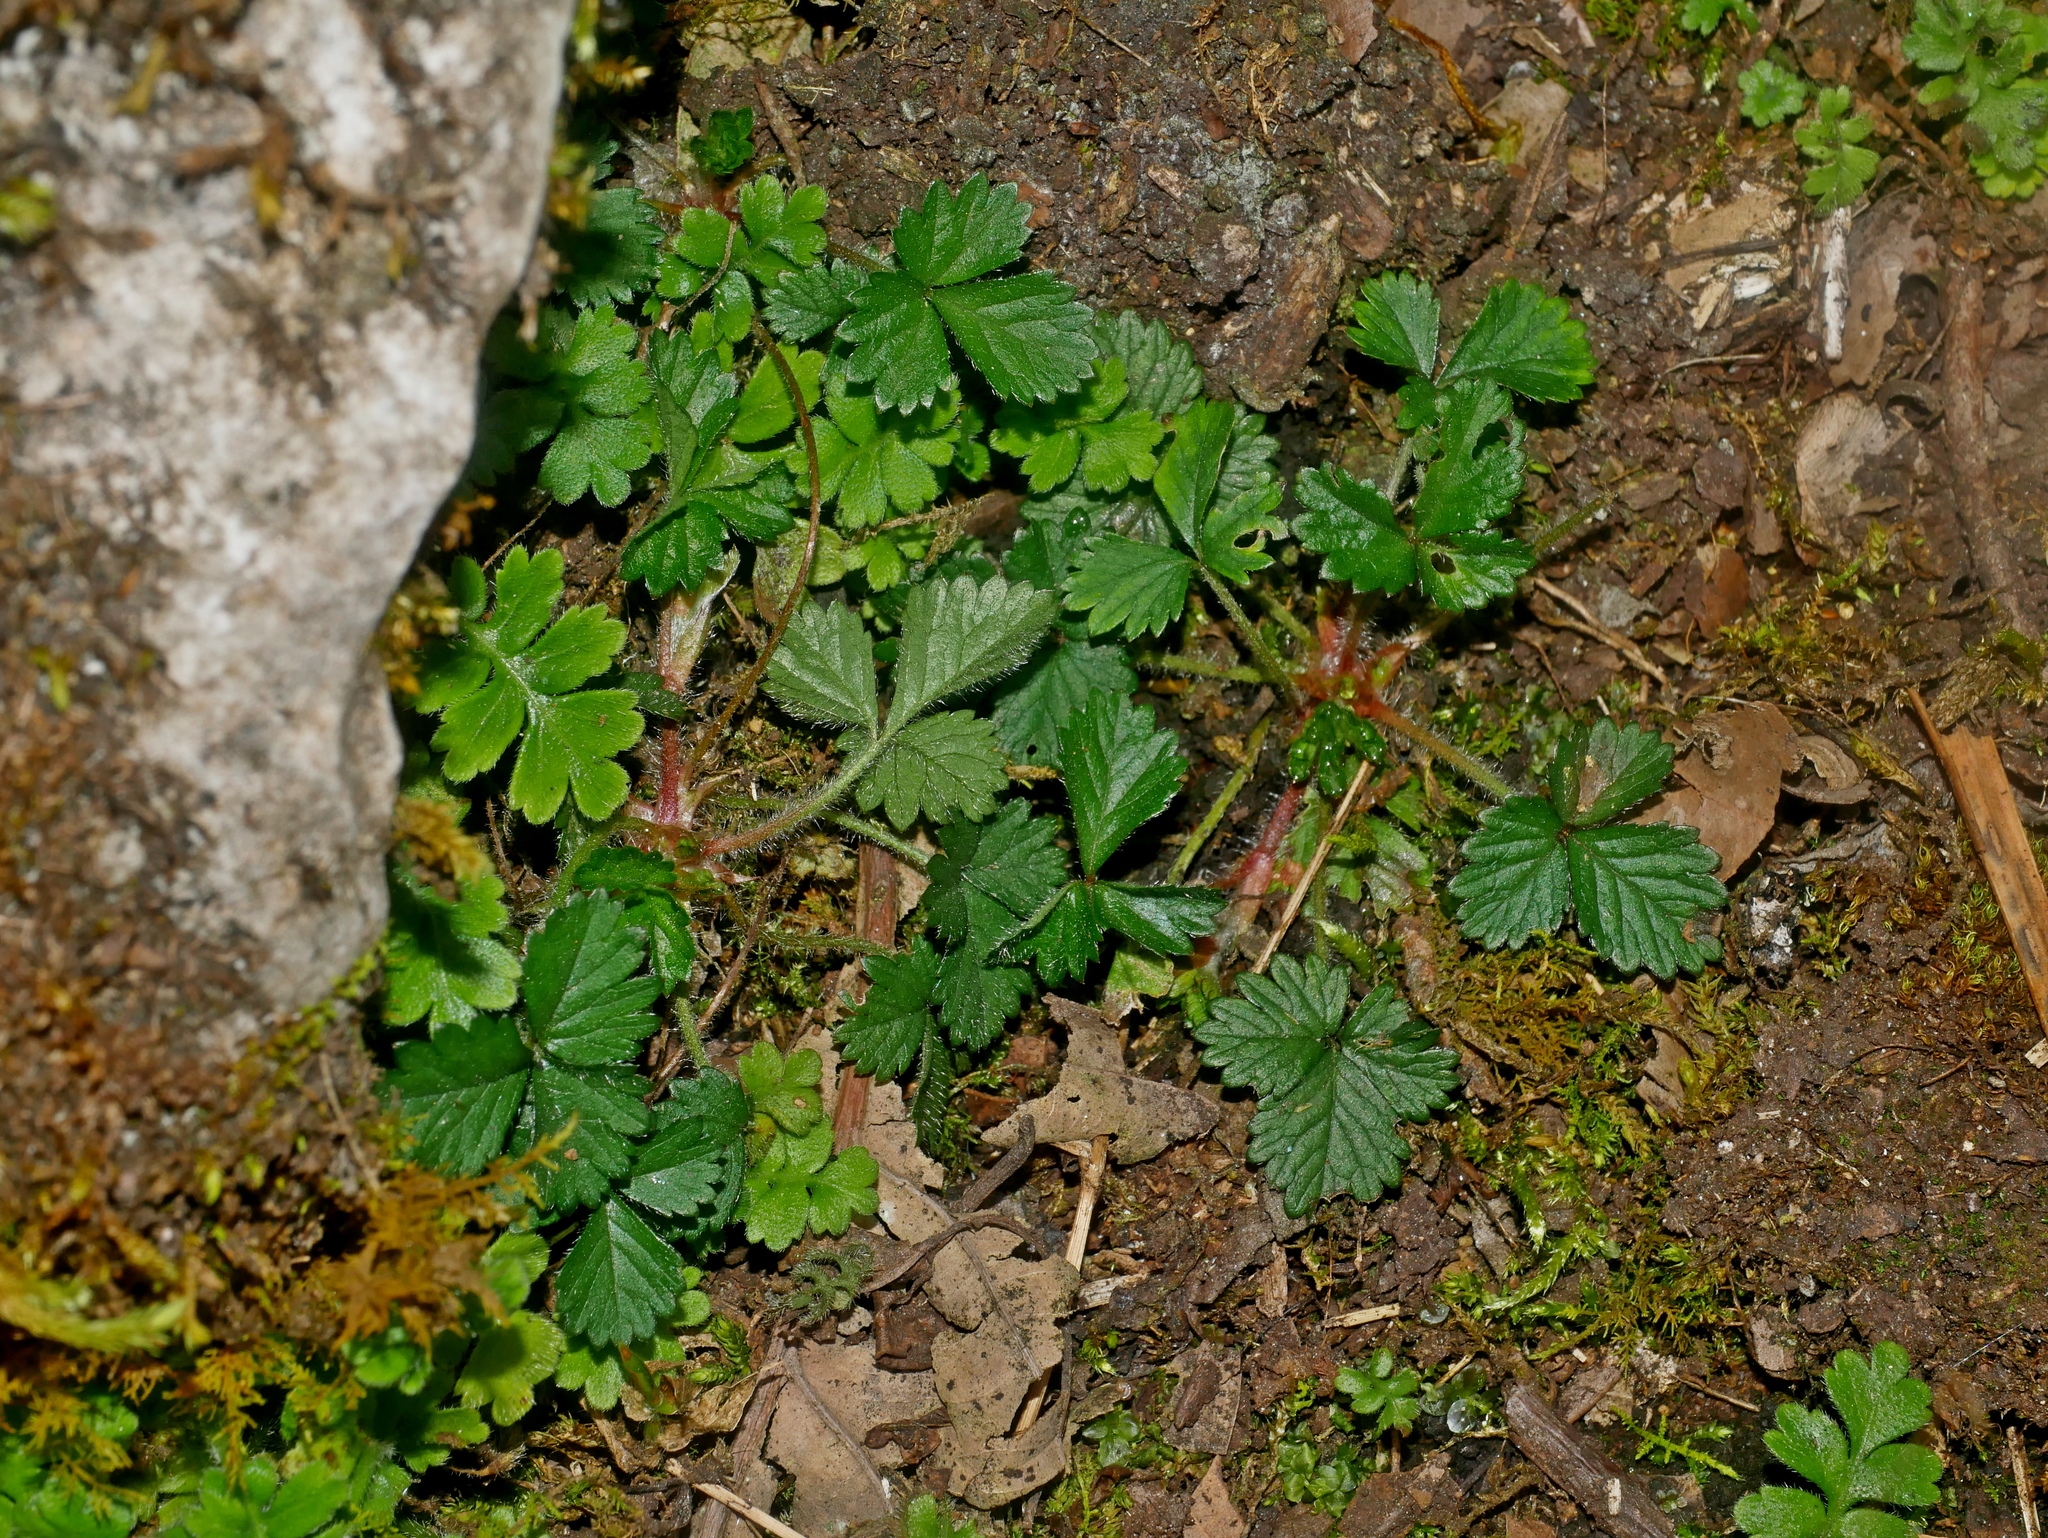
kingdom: Plantae
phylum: Tracheophyta
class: Magnoliopsida
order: Rosales
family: Rosaceae
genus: Fragaria
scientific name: Fragaria nilgerrensis
